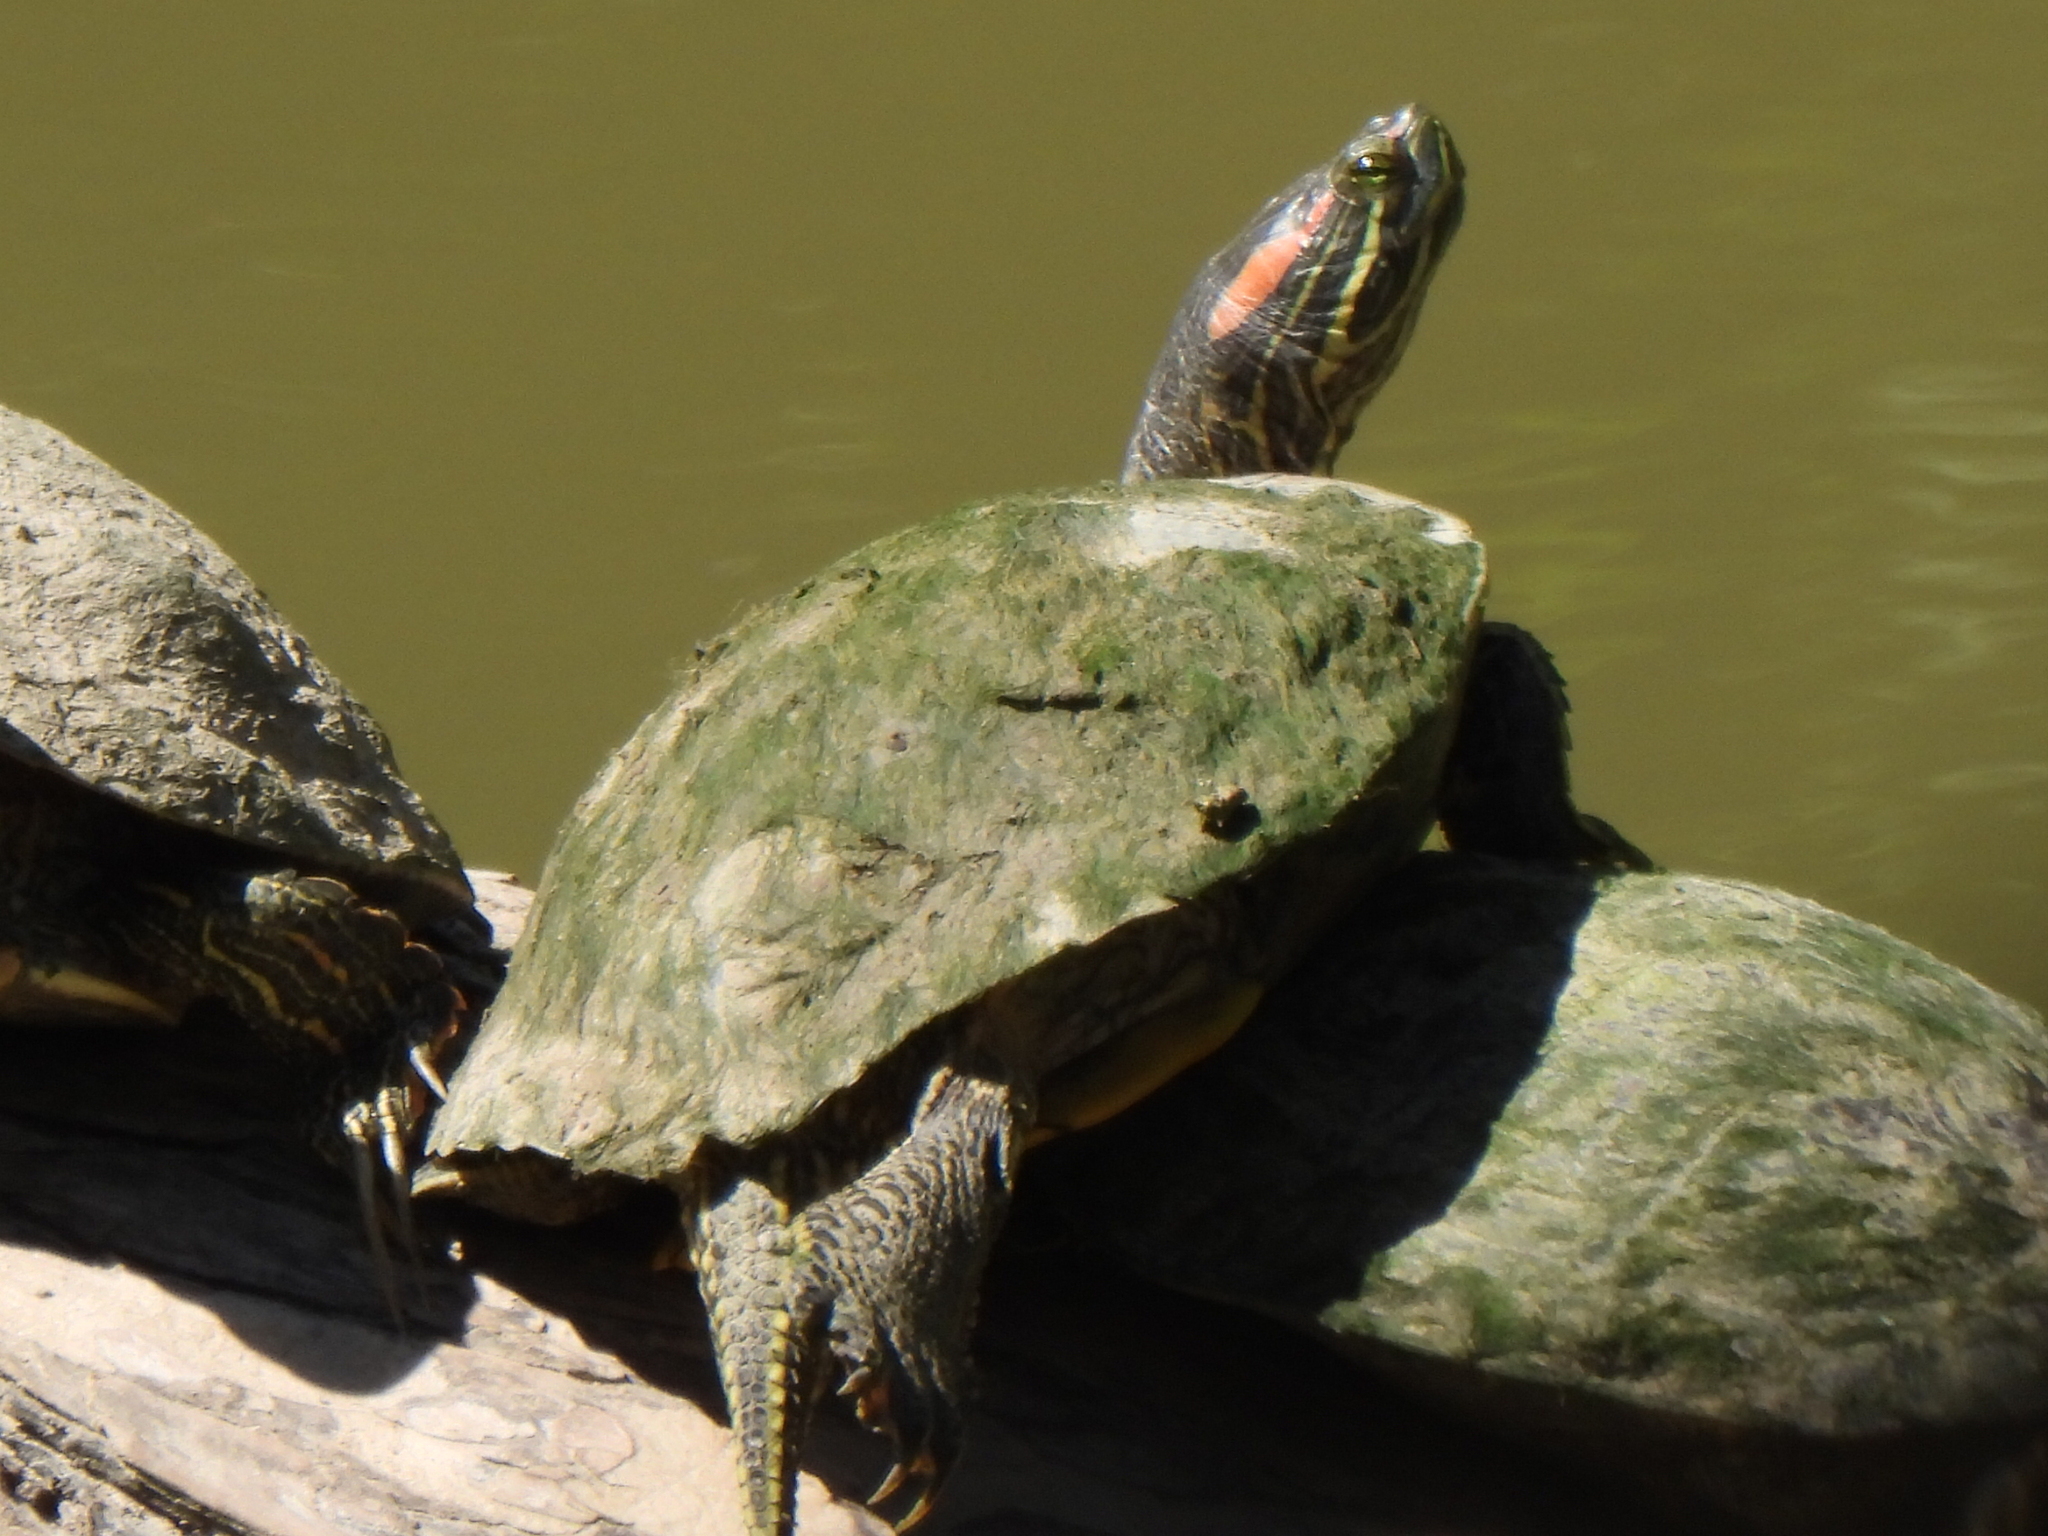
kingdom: Animalia
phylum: Chordata
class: Testudines
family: Emydidae
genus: Trachemys
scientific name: Trachemys scripta
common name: Slider
